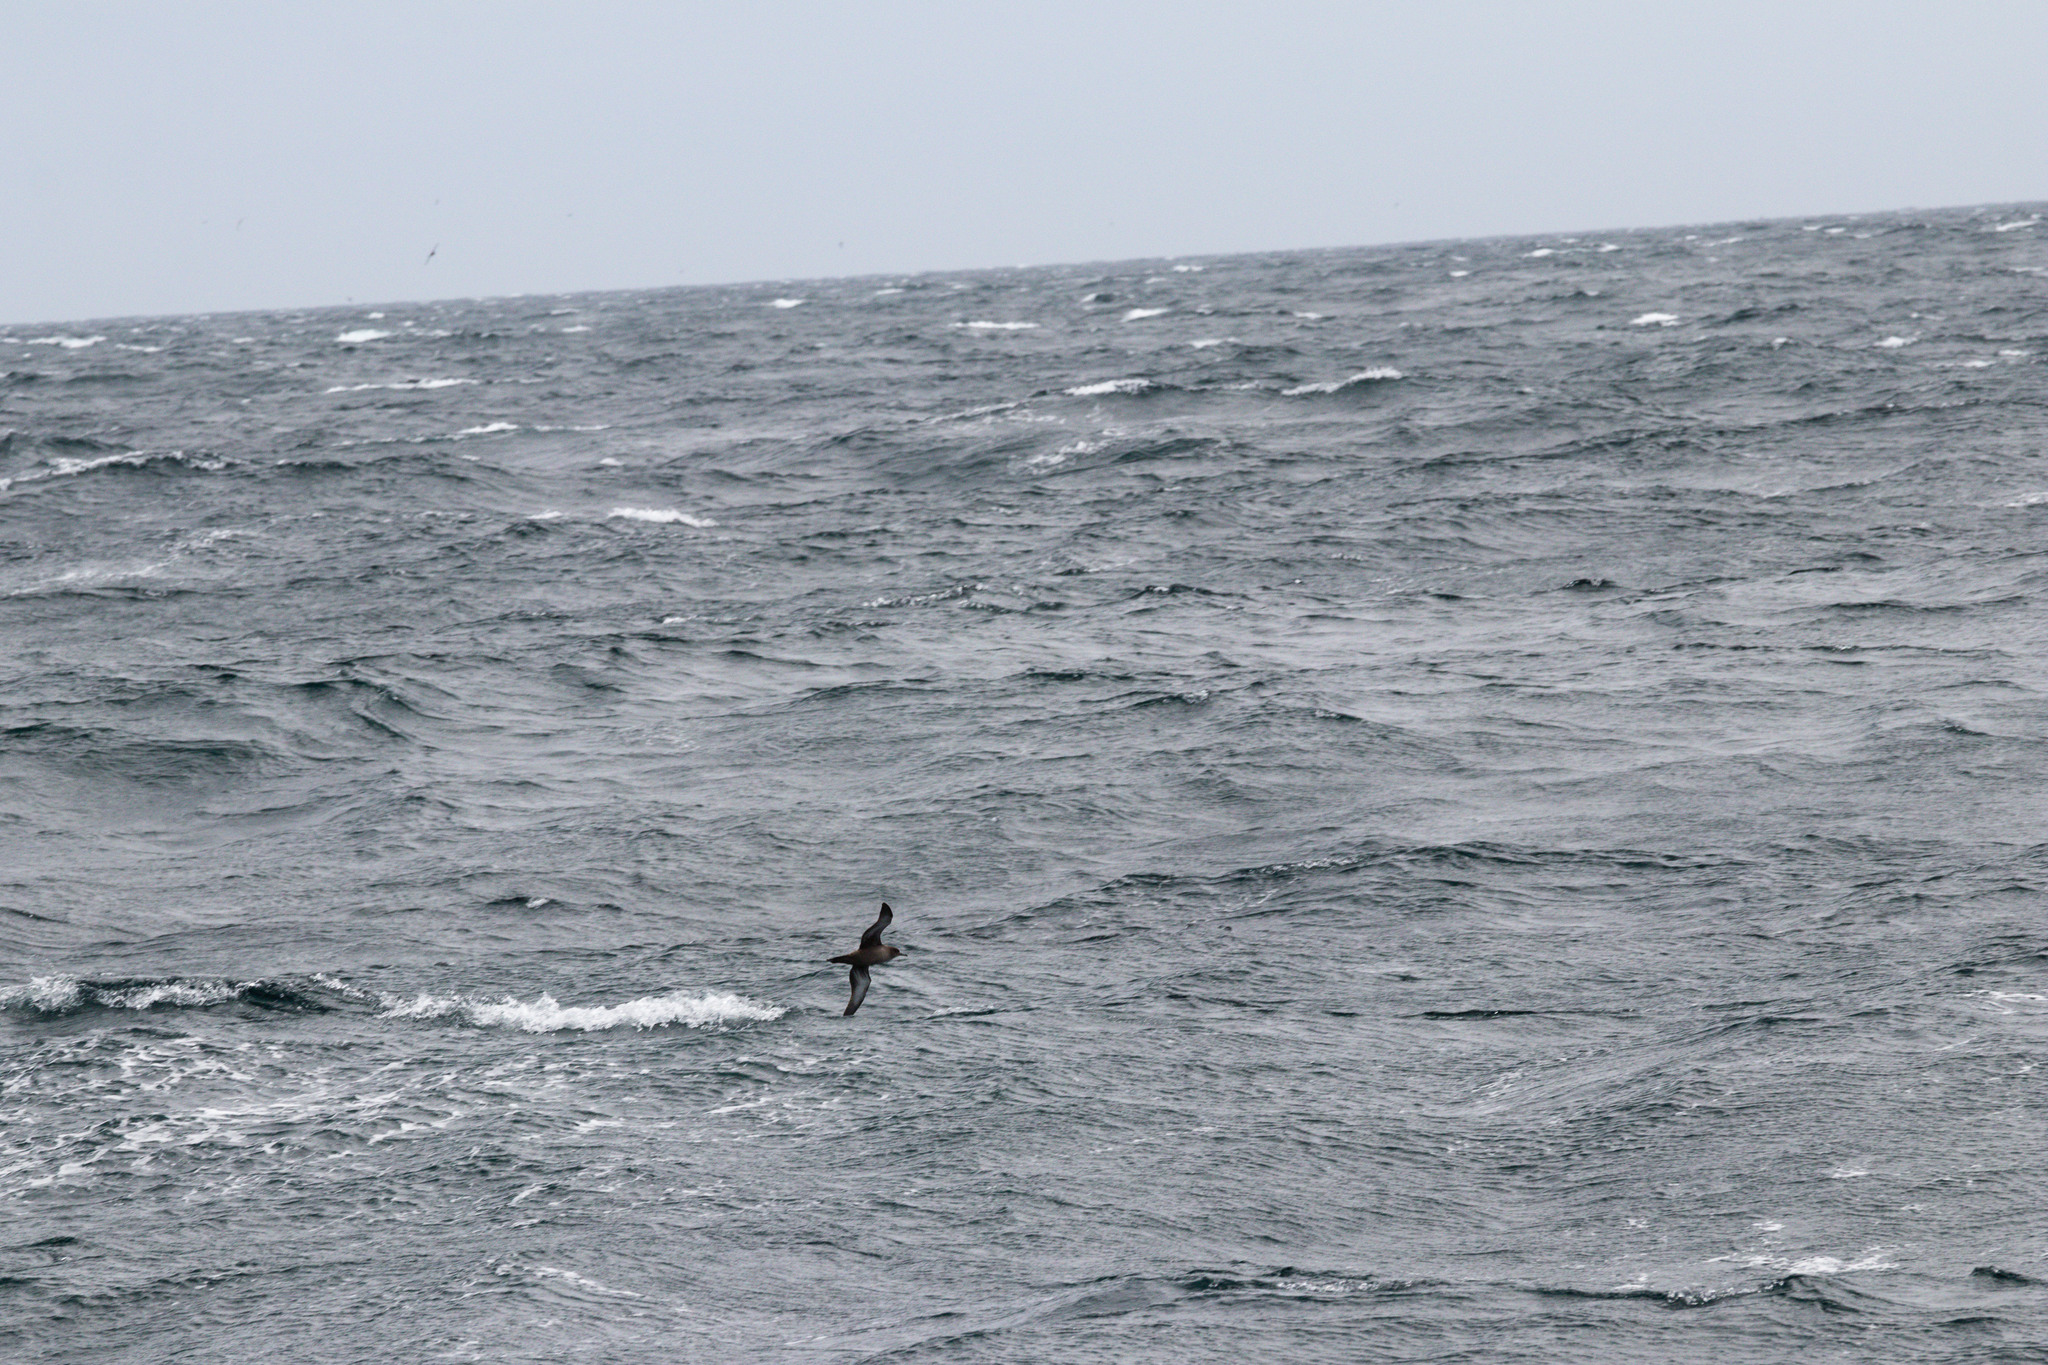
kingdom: Animalia
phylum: Chordata
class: Aves
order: Procellariiformes
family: Procellariidae
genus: Puffinus
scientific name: Puffinus griseus
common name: Sooty shearwater
